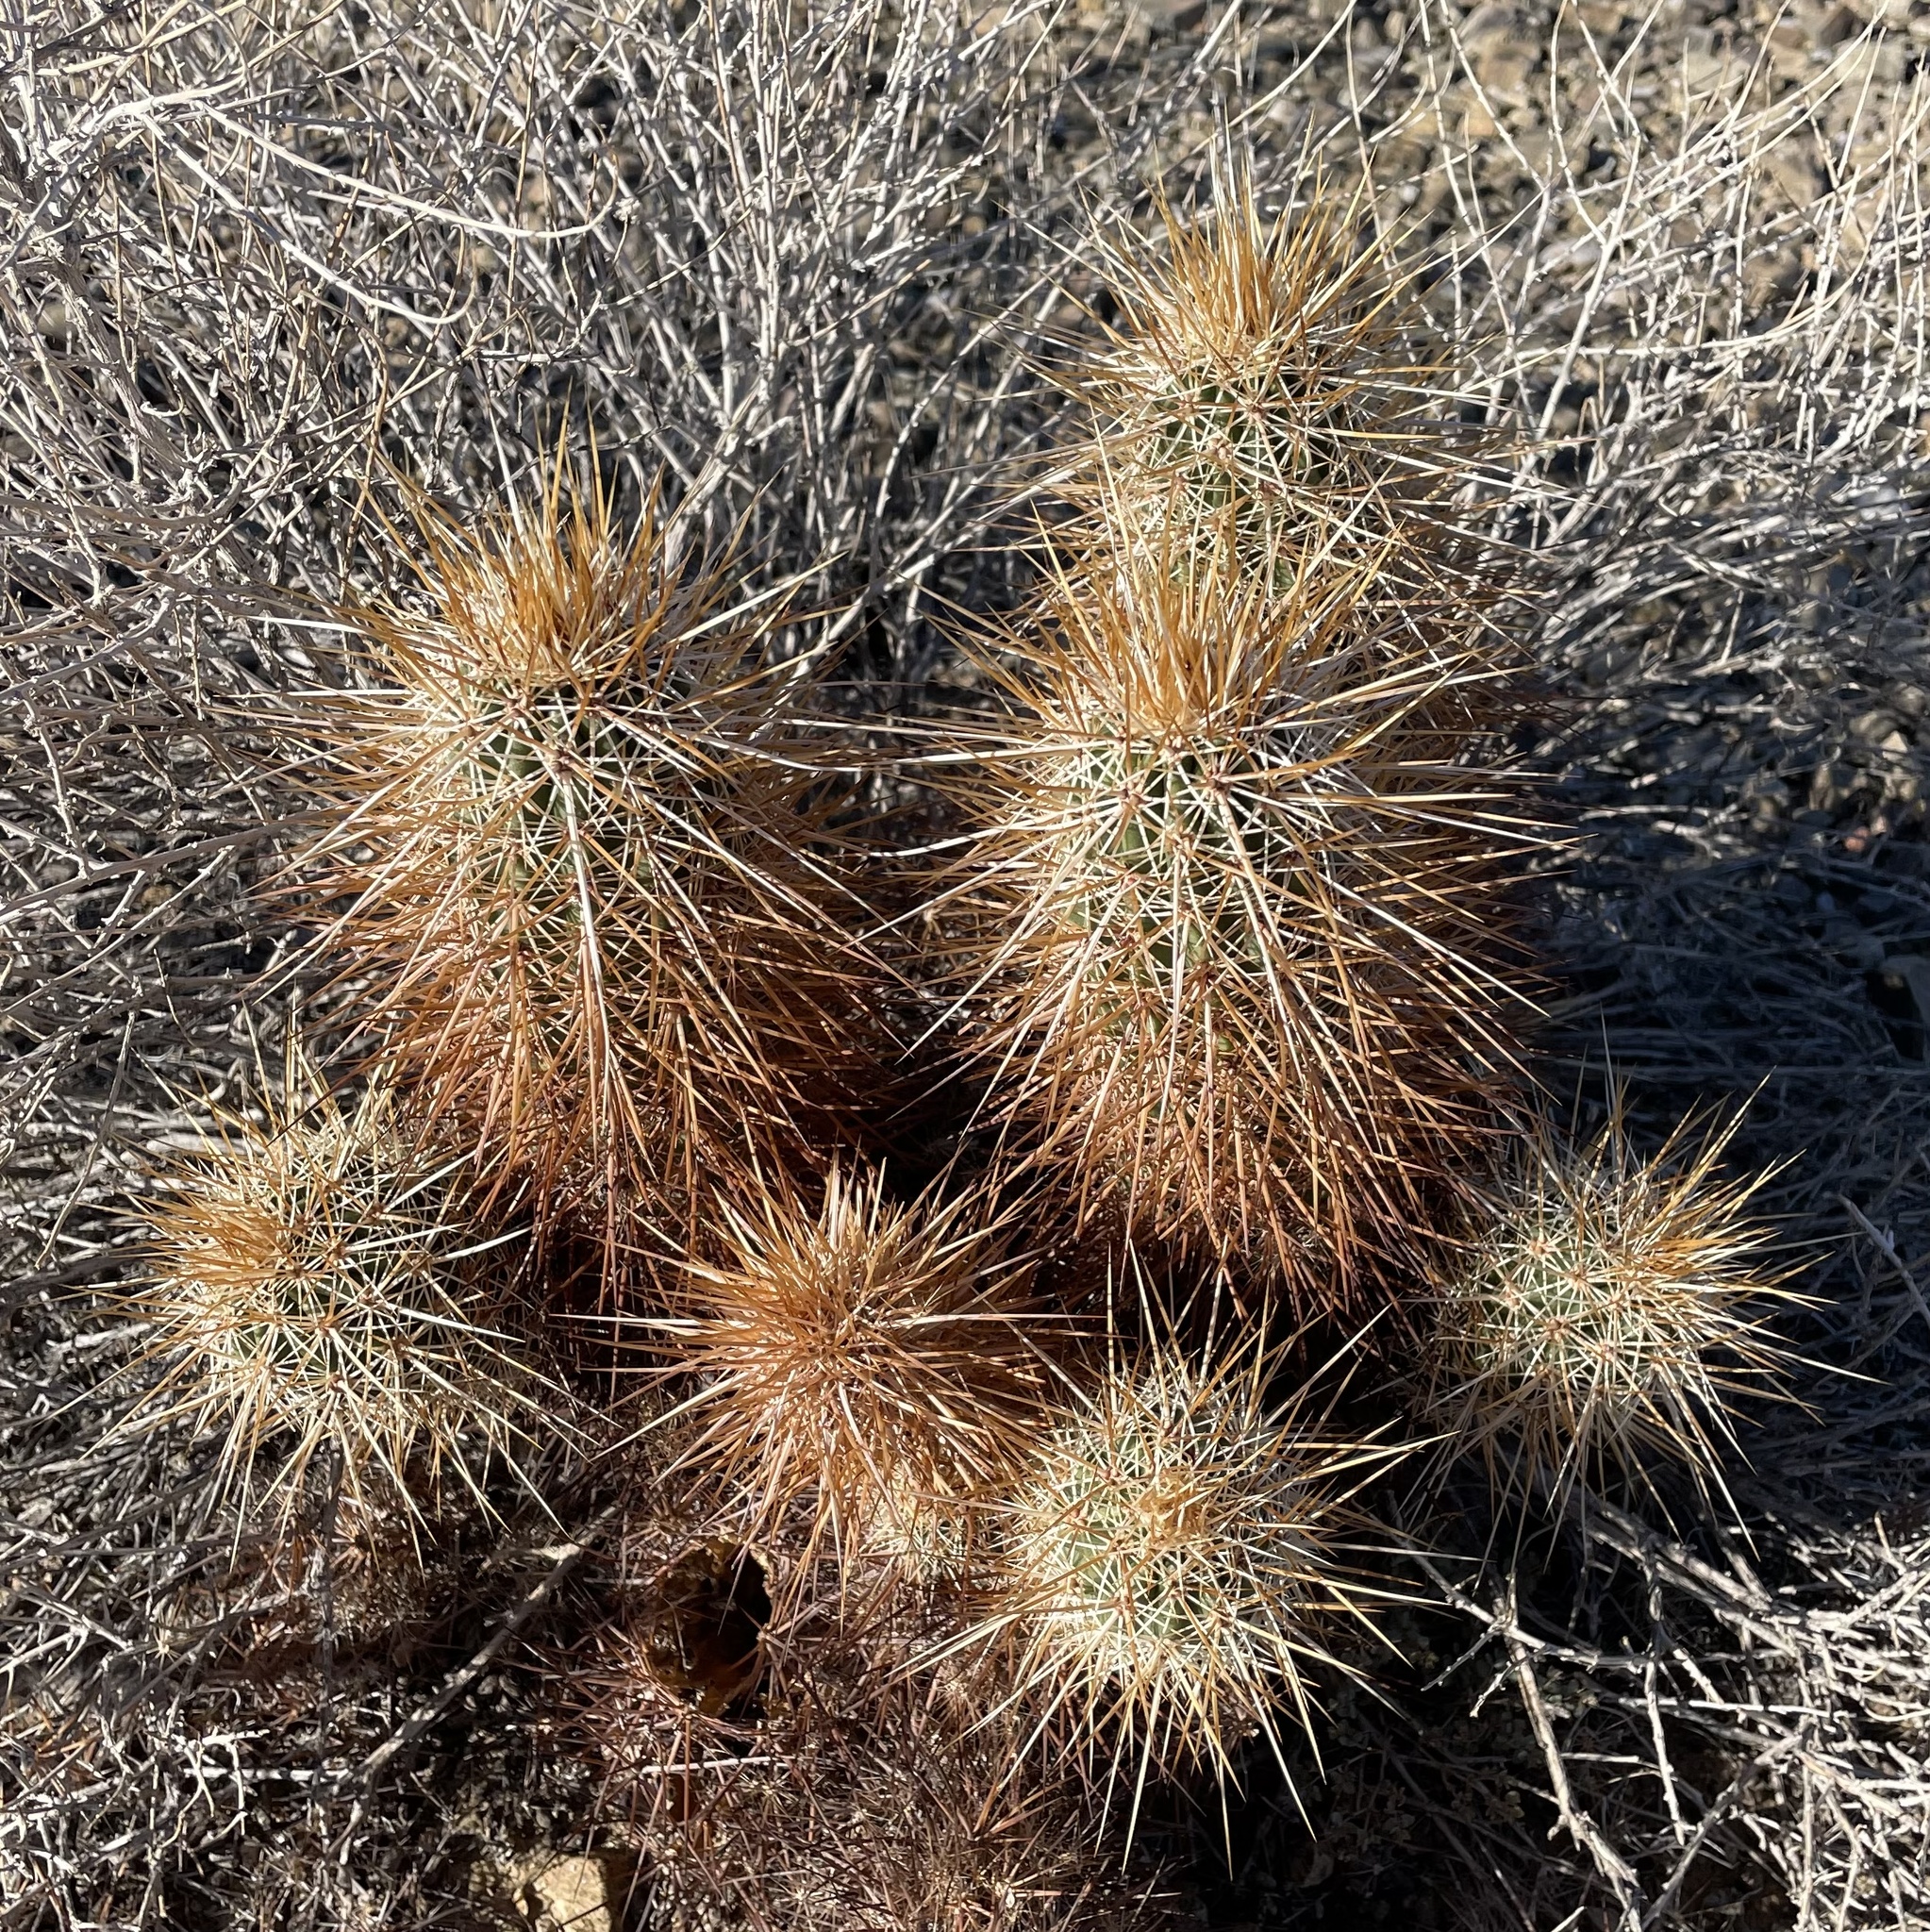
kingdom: Plantae
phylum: Tracheophyta
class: Magnoliopsida
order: Caryophyllales
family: Cactaceae
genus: Echinocereus
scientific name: Echinocereus engelmannii
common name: Engelmann's hedgehog cactus
